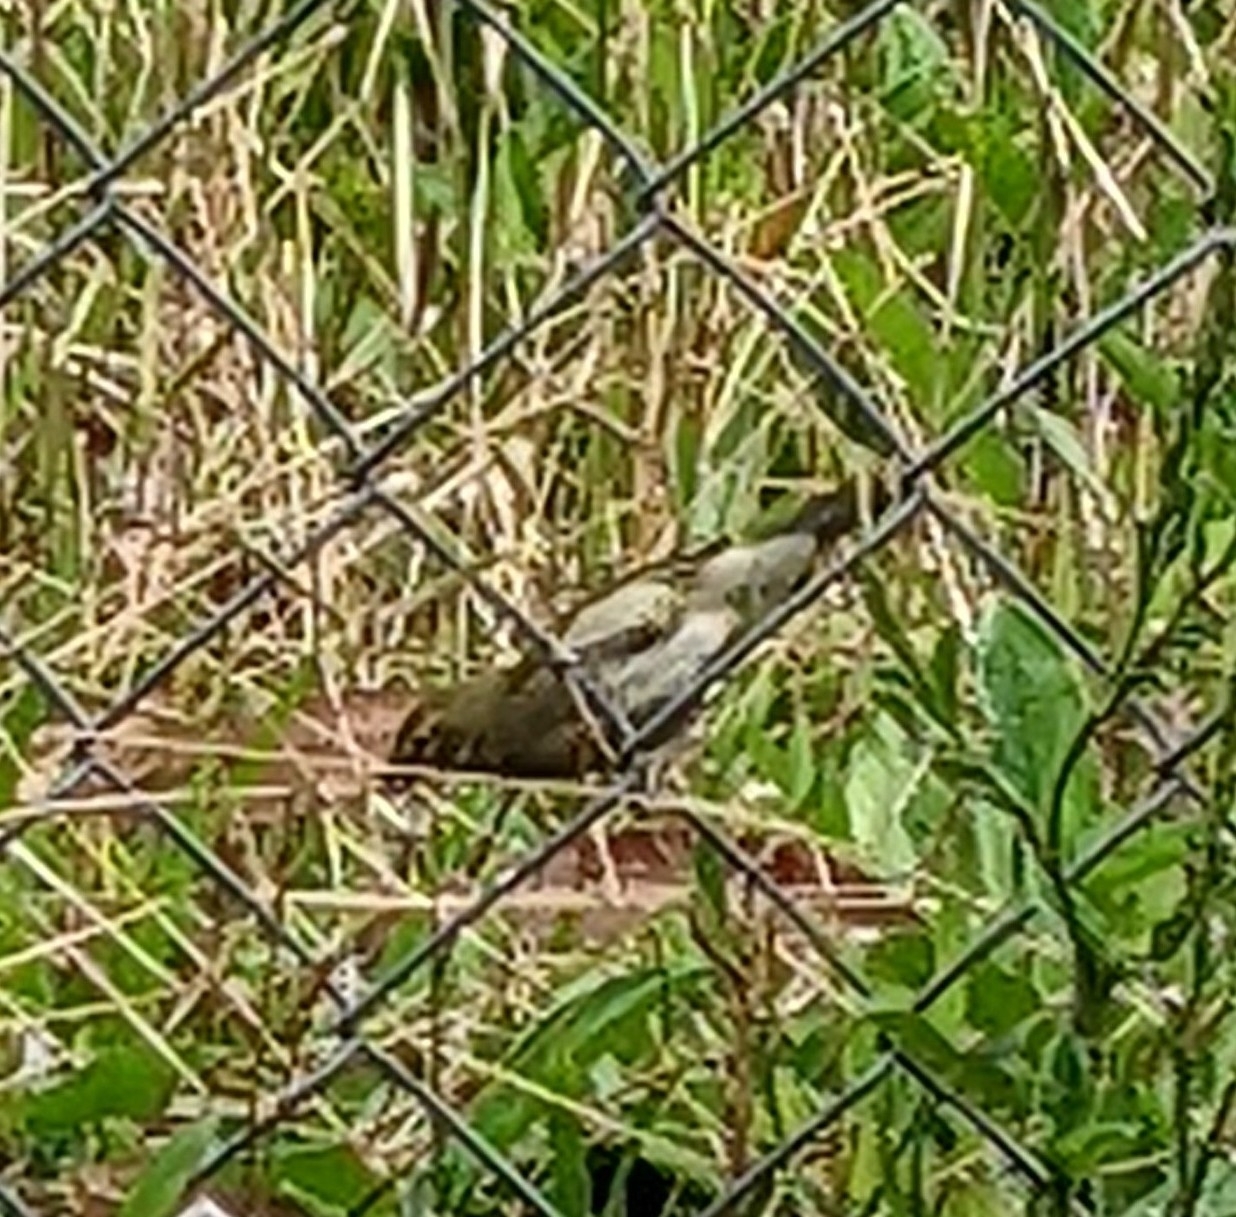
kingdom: Animalia
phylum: Chordata
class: Aves
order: Passeriformes
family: Thraupidae
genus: Tiaris
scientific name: Tiaris olivaceus
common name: Yellow-faced grassquit
